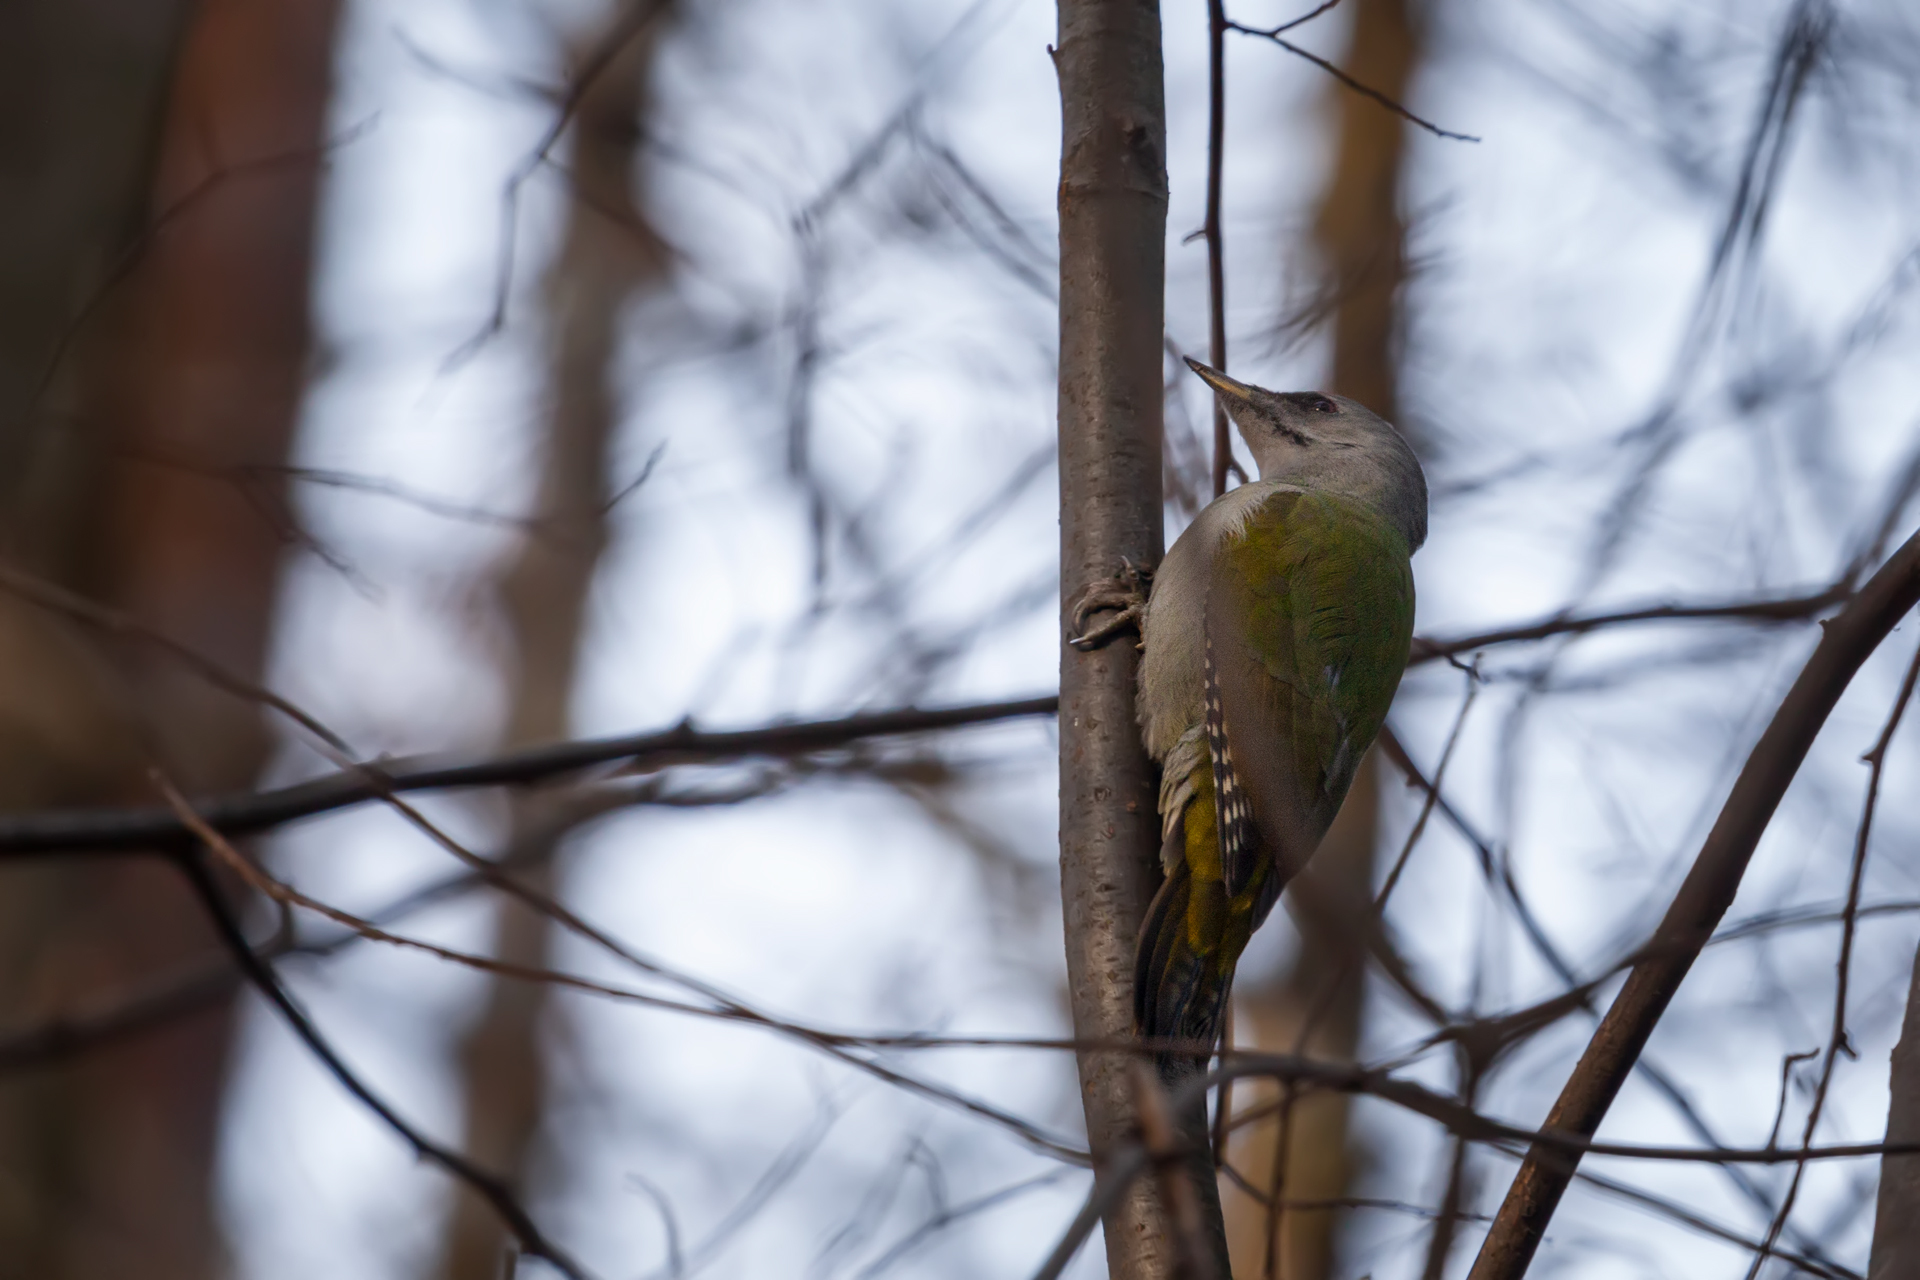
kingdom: Animalia
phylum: Chordata
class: Aves
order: Piciformes
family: Picidae
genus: Picus
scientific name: Picus canus
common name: Grey-headed woodpecker
